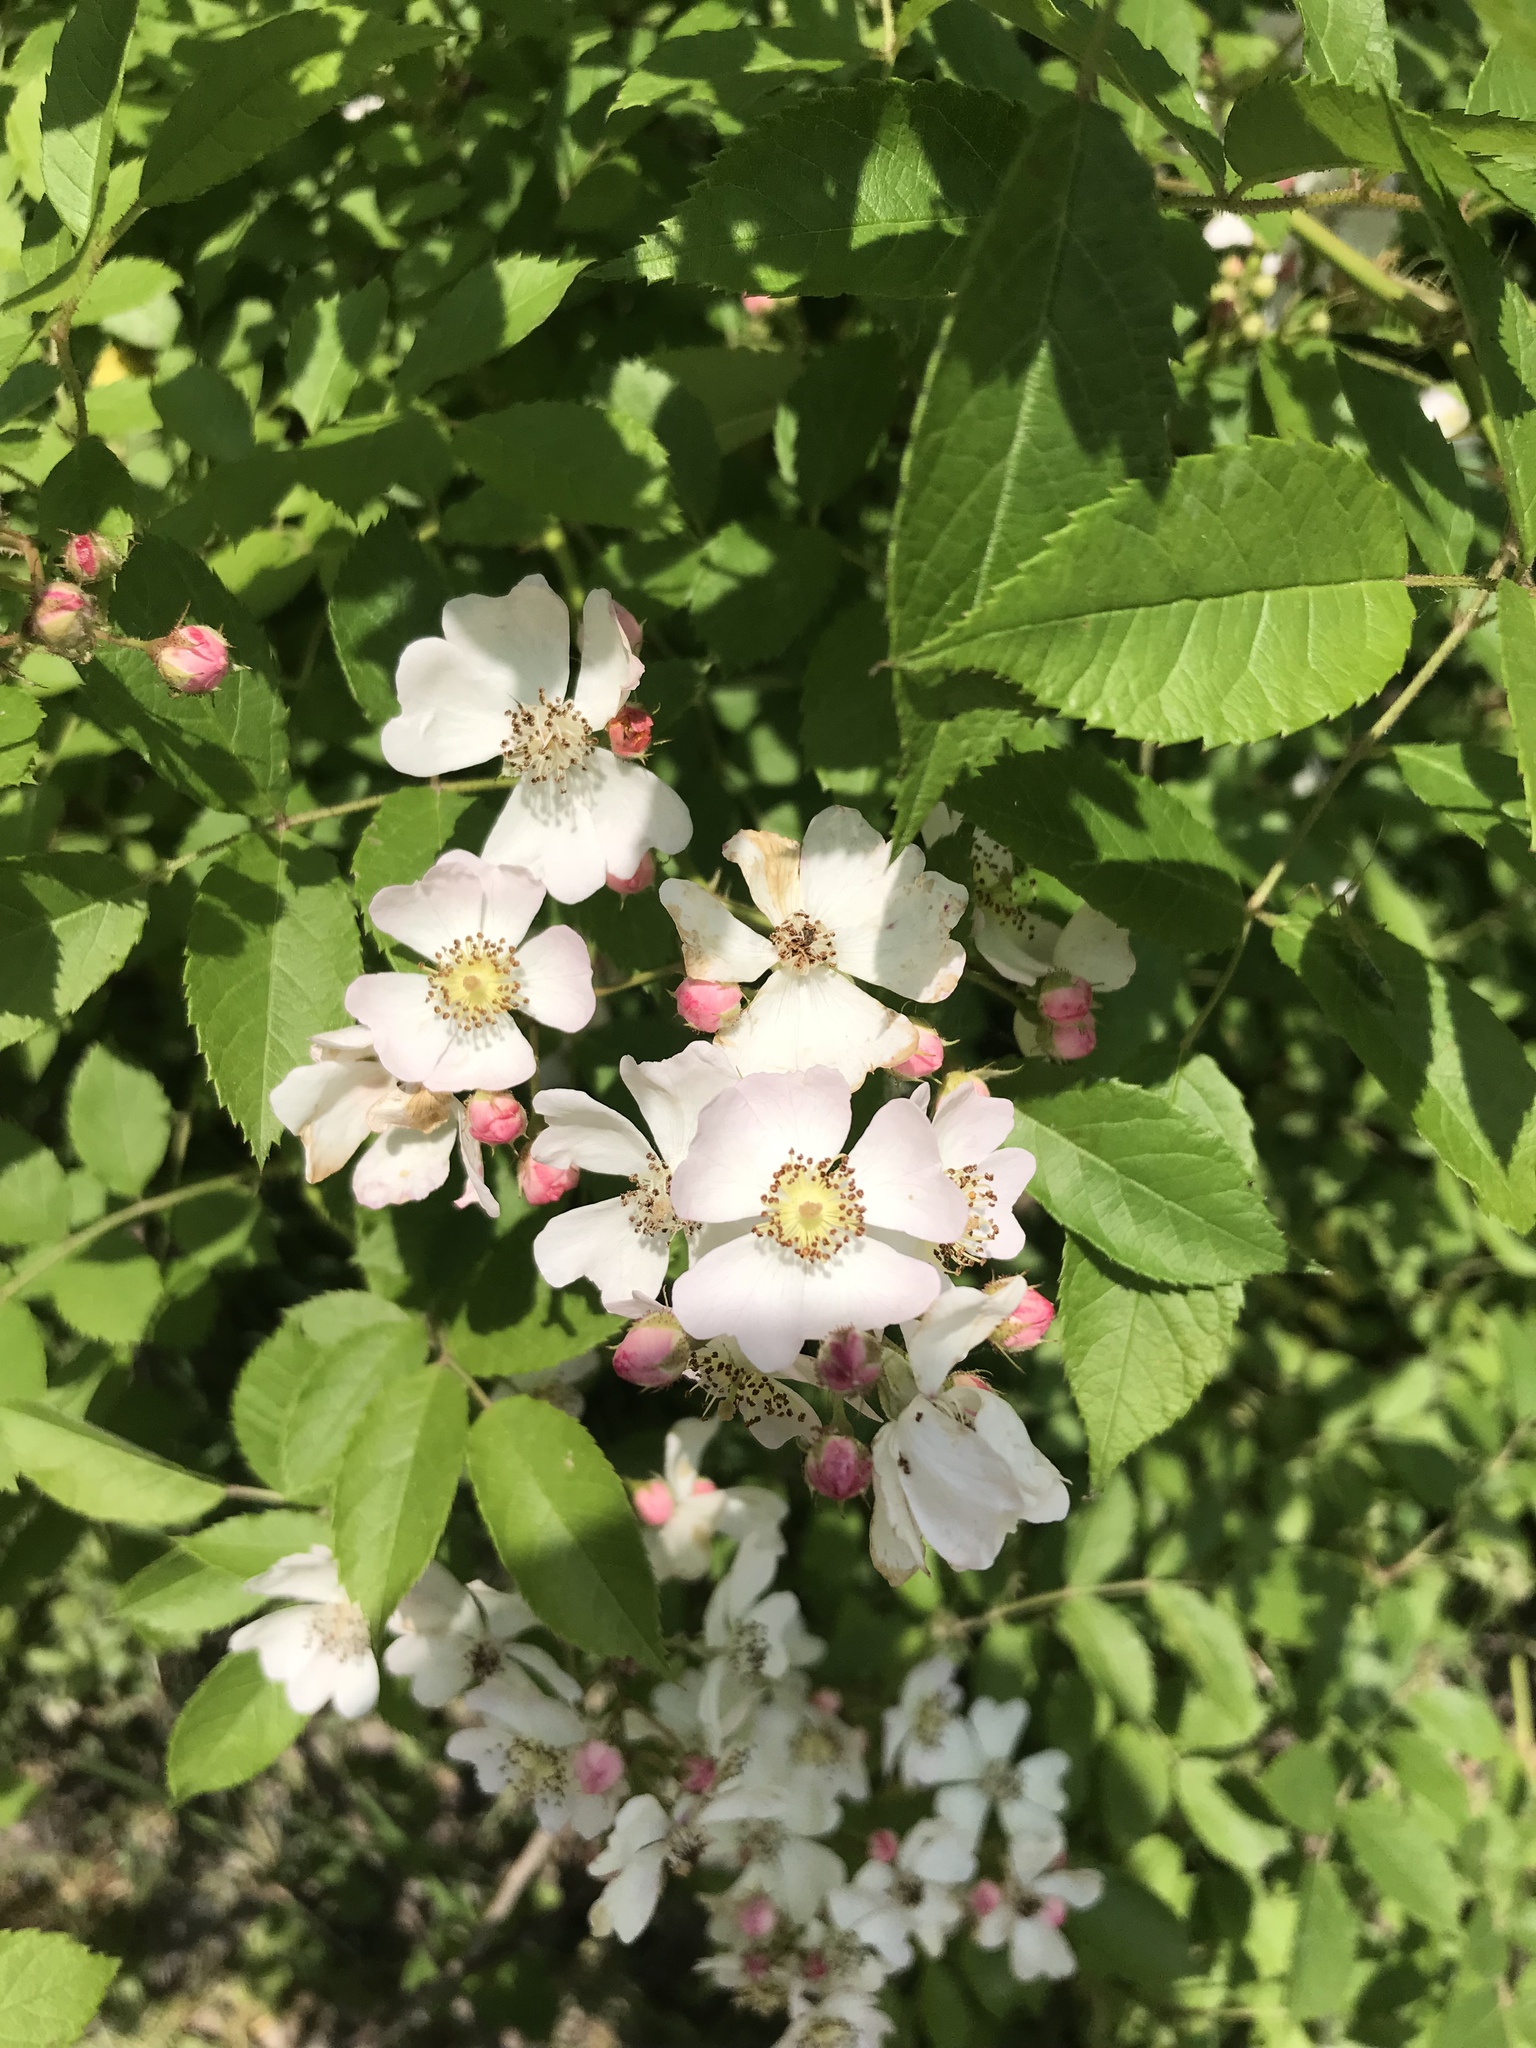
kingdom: Plantae
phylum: Tracheophyta
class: Magnoliopsida
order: Rosales
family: Rosaceae
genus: Rosa
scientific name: Rosa multiflora
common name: Multiflora rose
